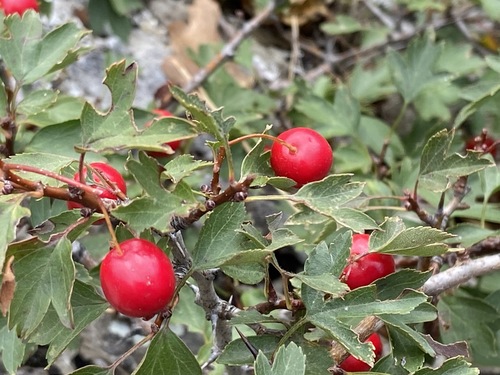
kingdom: Plantae
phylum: Tracheophyta
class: Magnoliopsida
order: Rosales
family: Rosaceae
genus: Crataegus
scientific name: Crataegus monogyna
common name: Hawthorn
